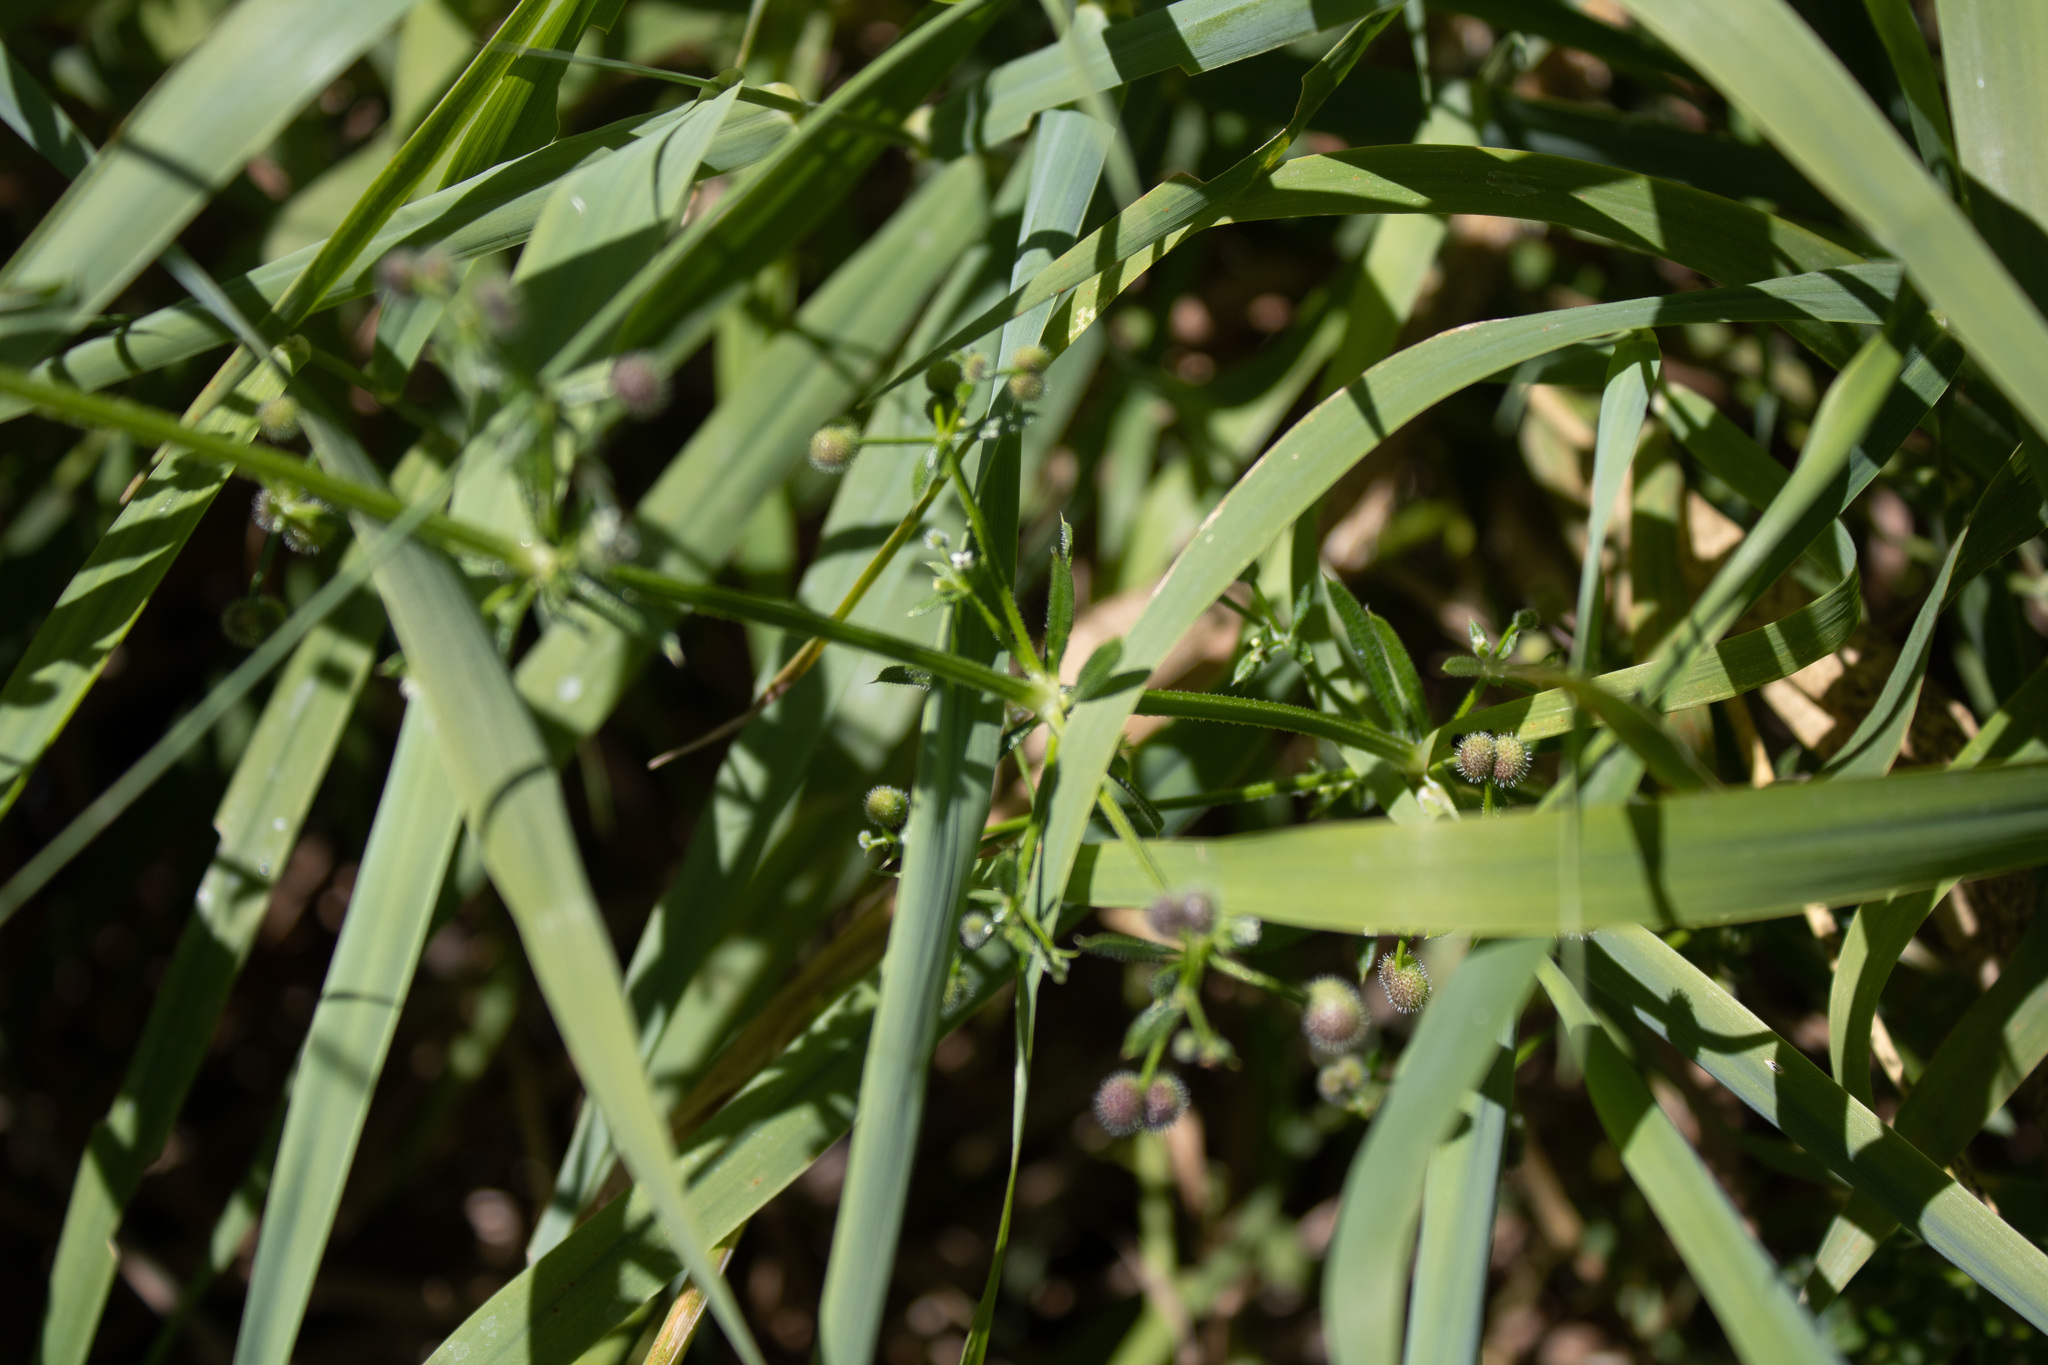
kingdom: Plantae
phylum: Tracheophyta
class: Magnoliopsida
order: Gentianales
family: Rubiaceae
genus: Galium
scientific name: Galium aparine
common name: Cleavers
